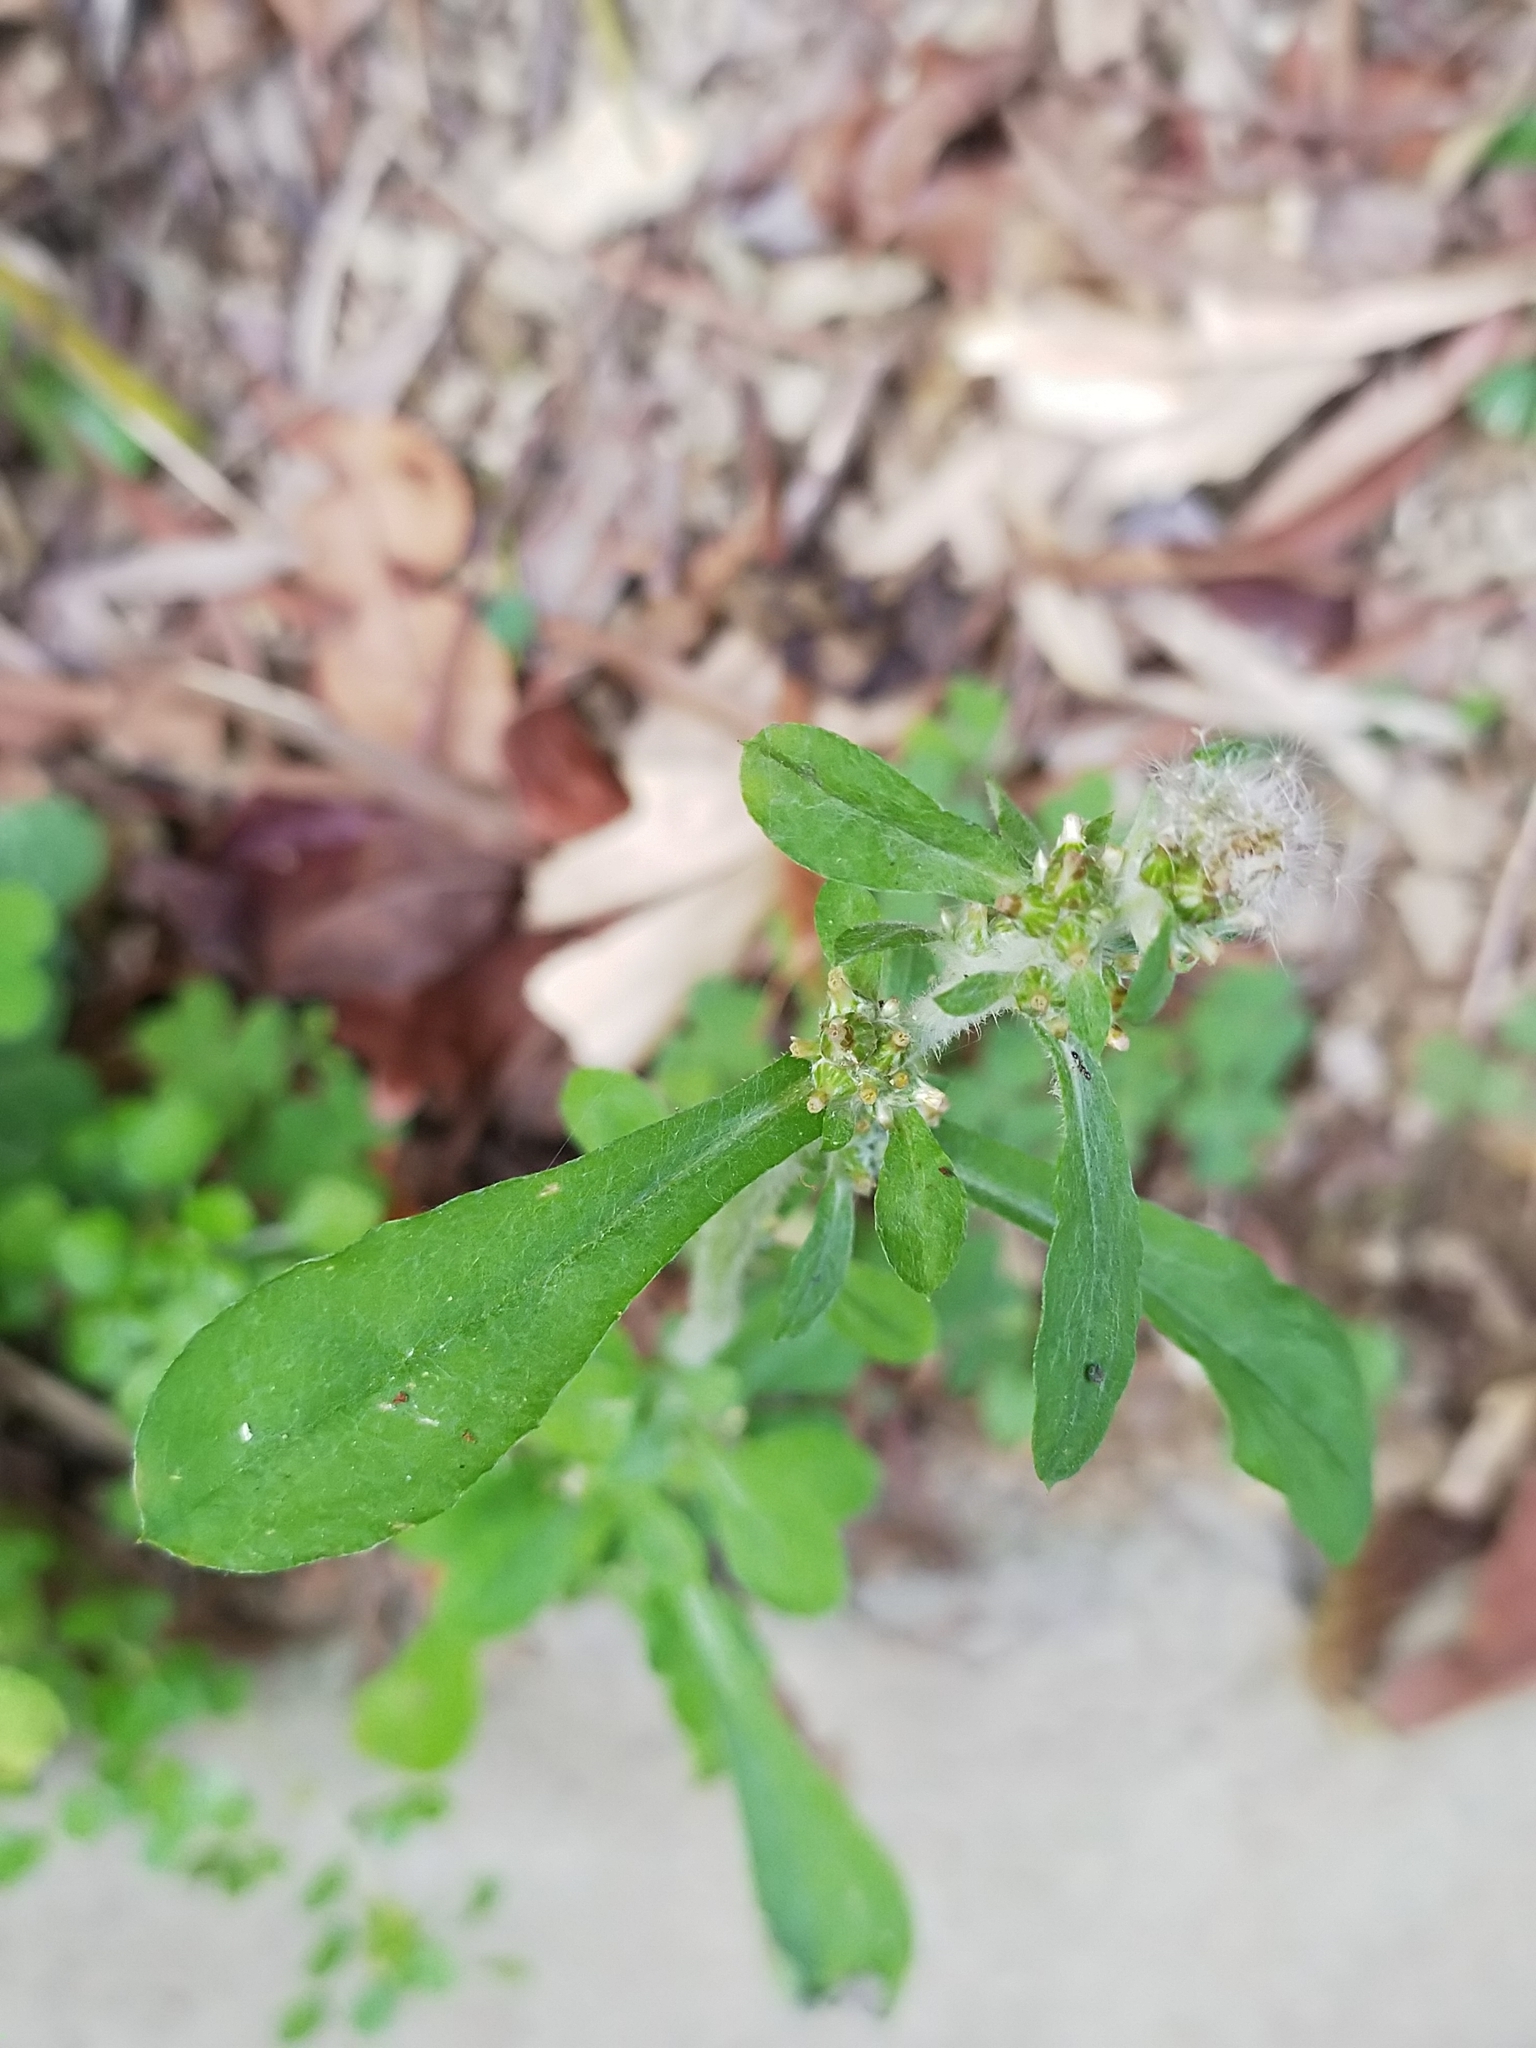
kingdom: Plantae
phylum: Tracheophyta
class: Magnoliopsida
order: Asterales
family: Asteraceae
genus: Gamochaeta
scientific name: Gamochaeta pensylvanica
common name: Pennsylvania everlasting
